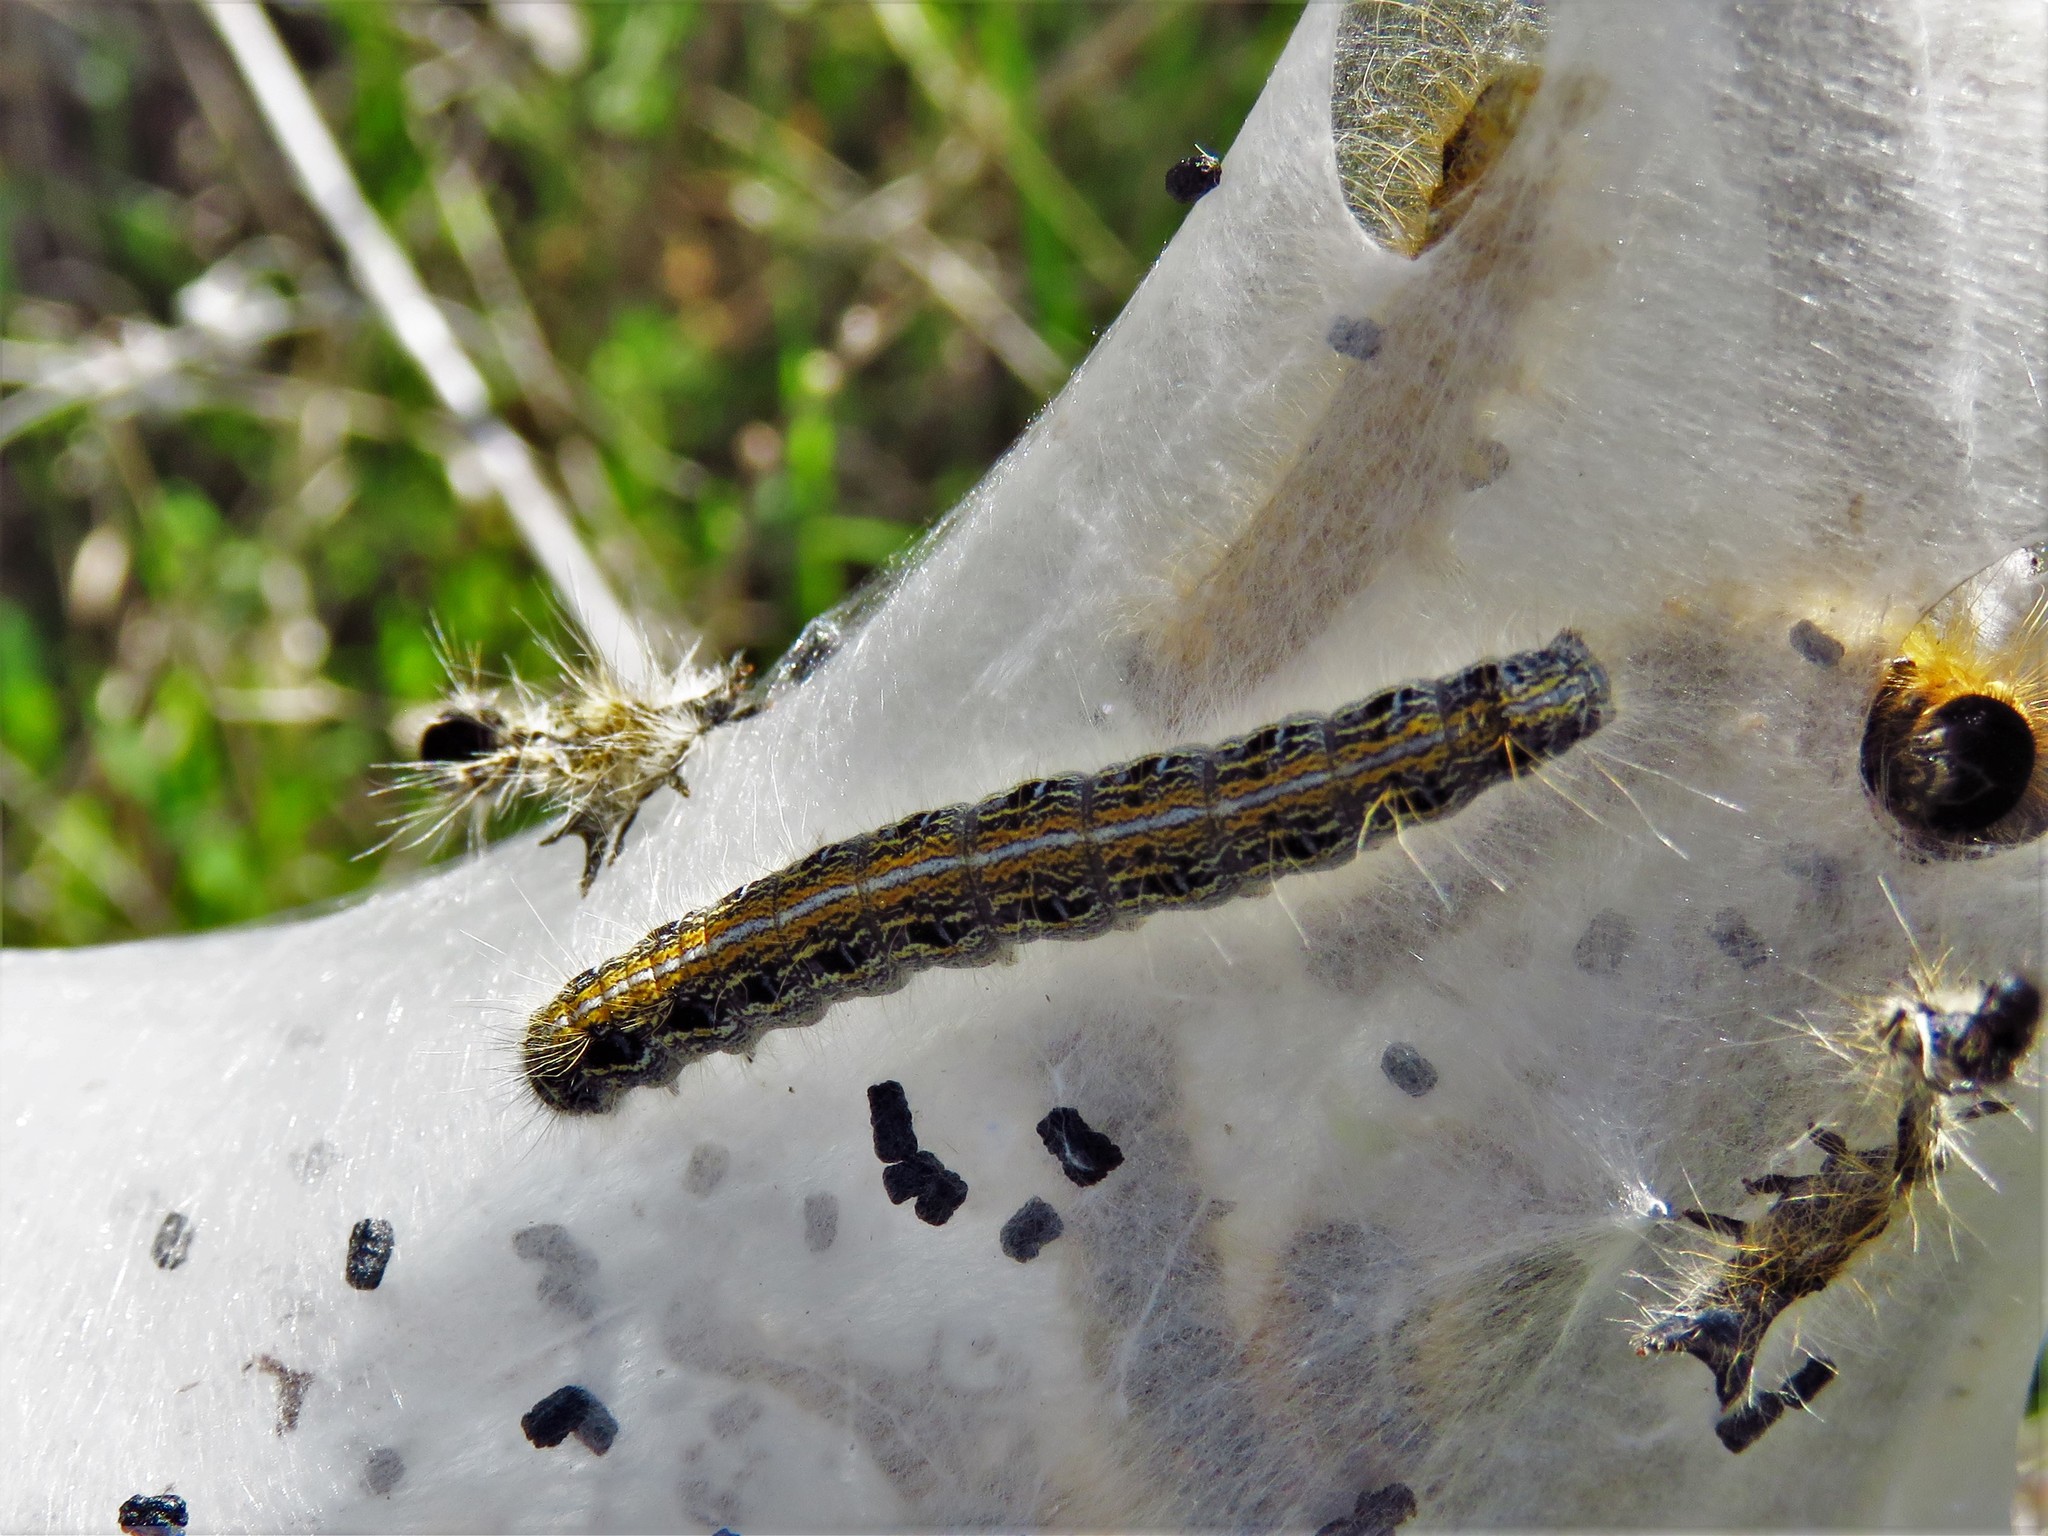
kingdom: Animalia
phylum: Arthropoda
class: Insecta
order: Lepidoptera
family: Lasiocampidae
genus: Malacosoma
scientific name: Malacosoma americana
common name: Eastern tent caterpillar moth
